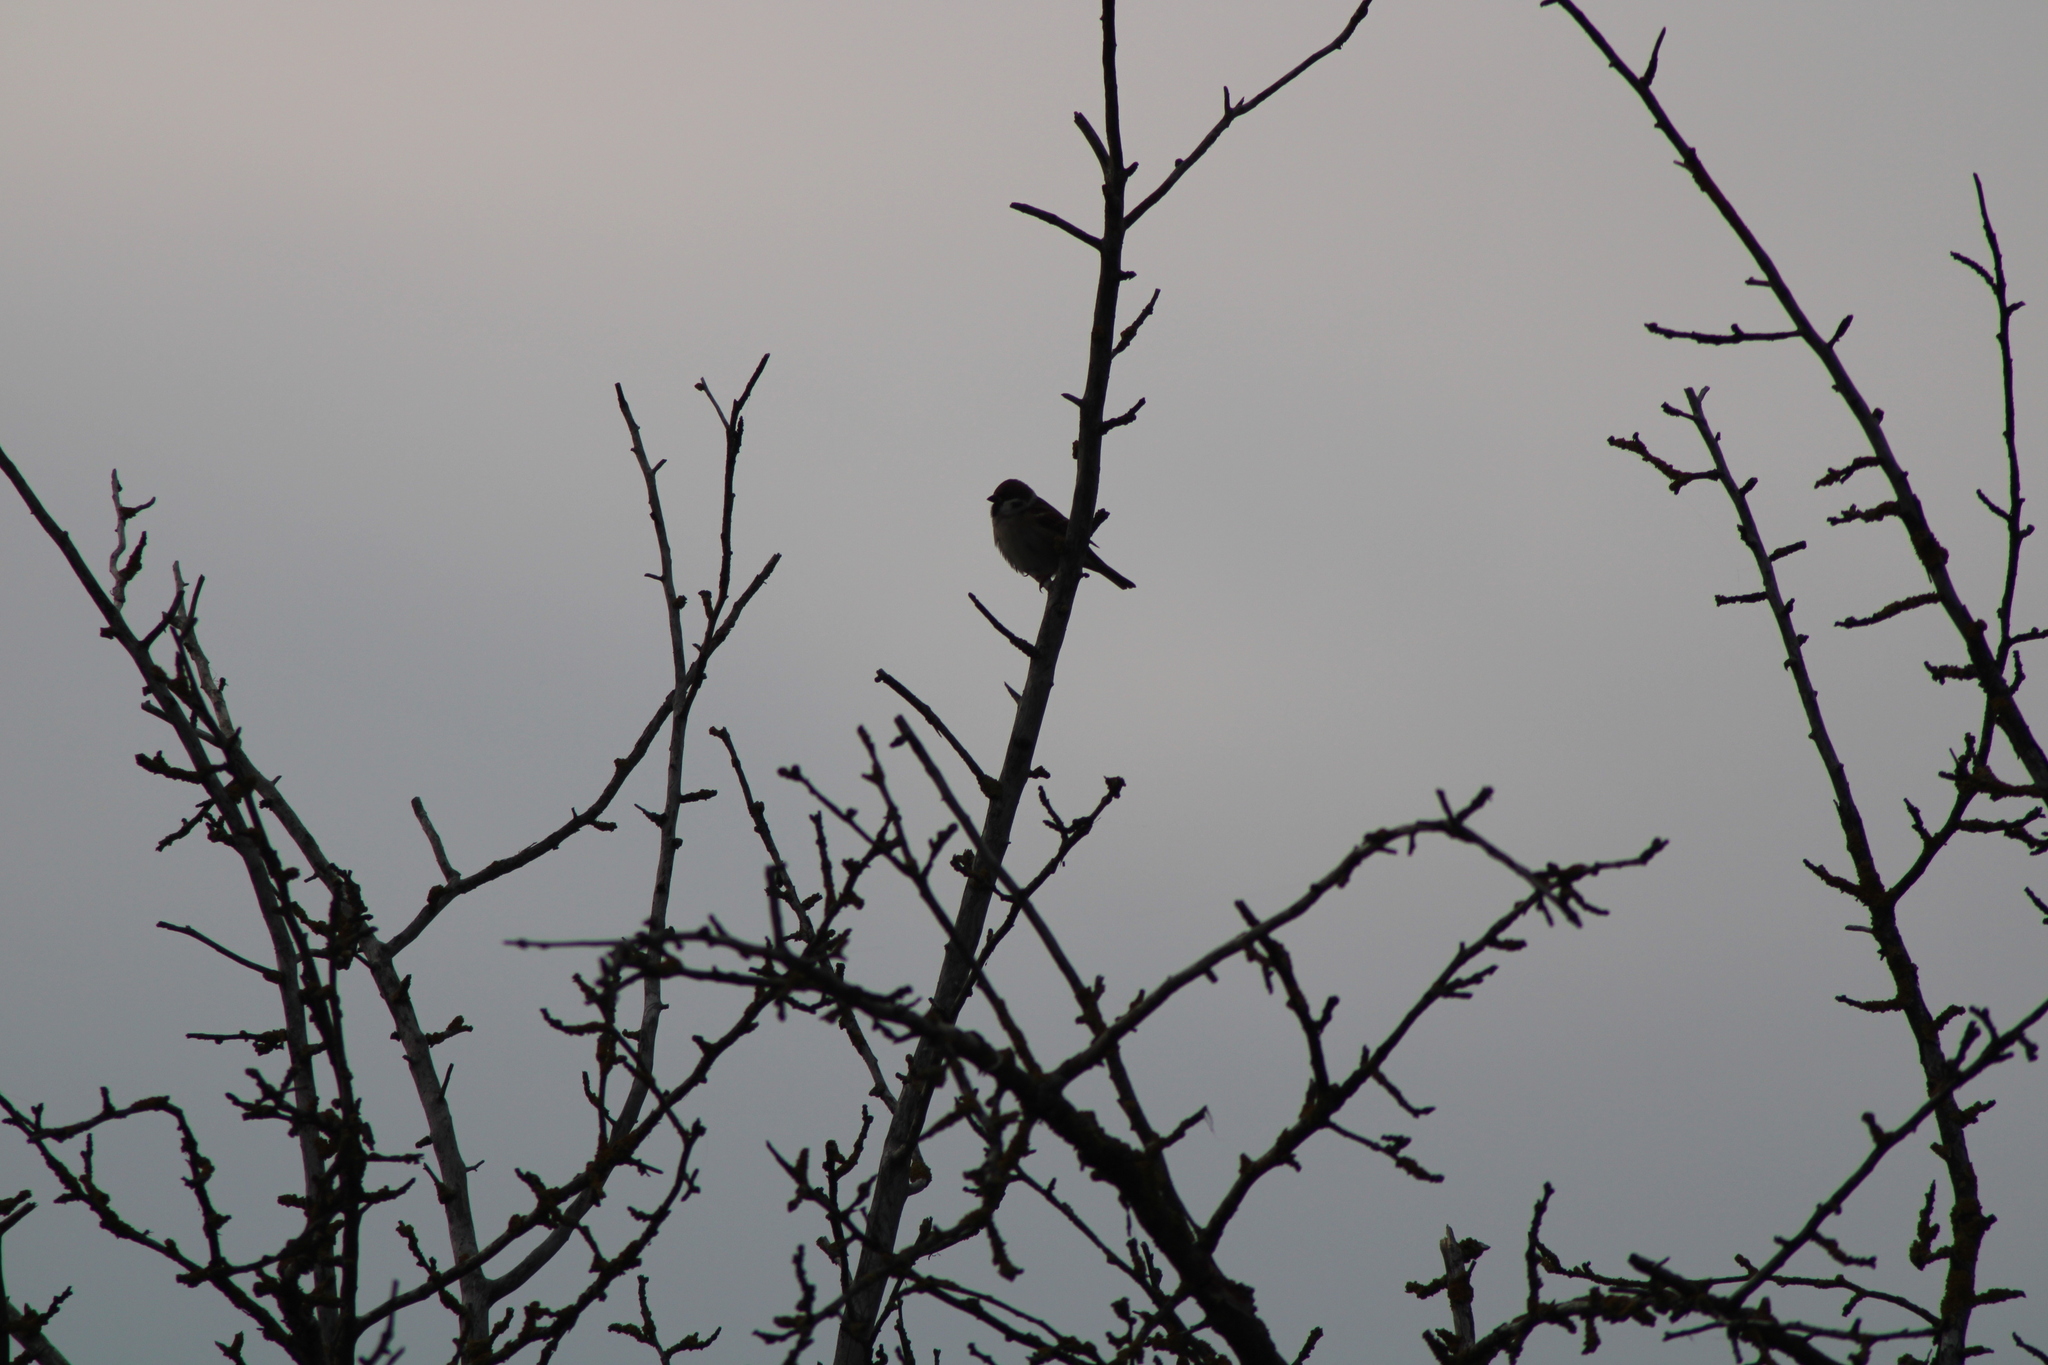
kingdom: Animalia
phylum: Chordata
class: Aves
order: Passeriformes
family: Passeridae
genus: Passer
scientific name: Passer montanus
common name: Eurasian tree sparrow
